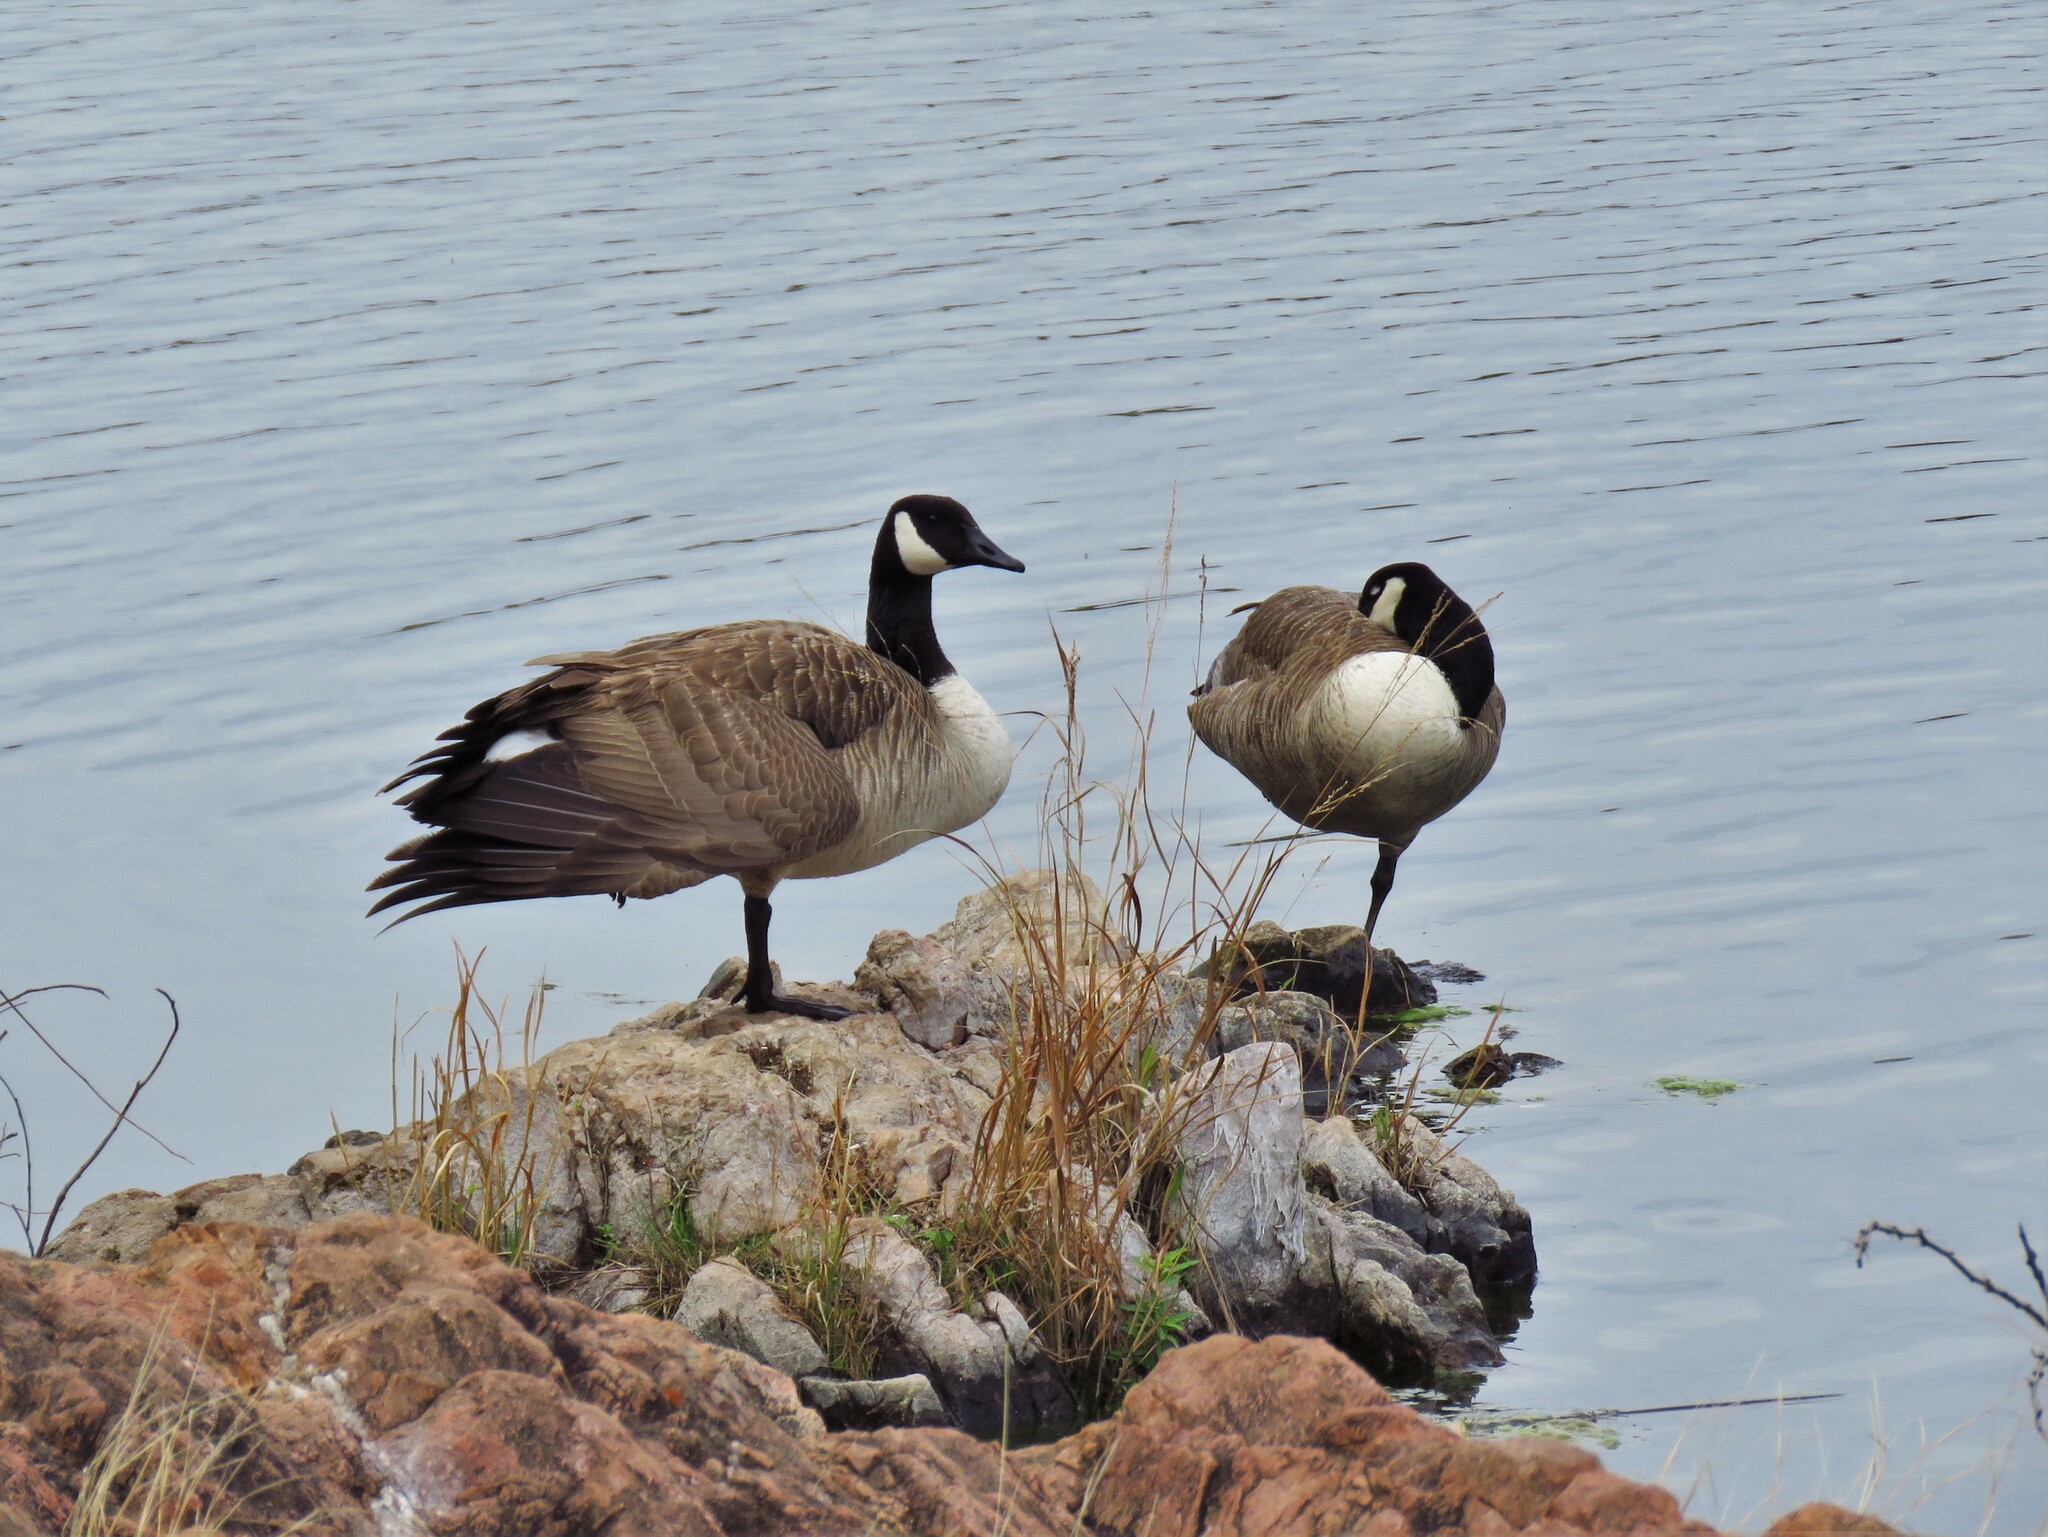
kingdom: Animalia
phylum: Chordata
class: Aves
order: Anseriformes
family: Anatidae
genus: Branta
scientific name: Branta canadensis
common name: Canada goose
